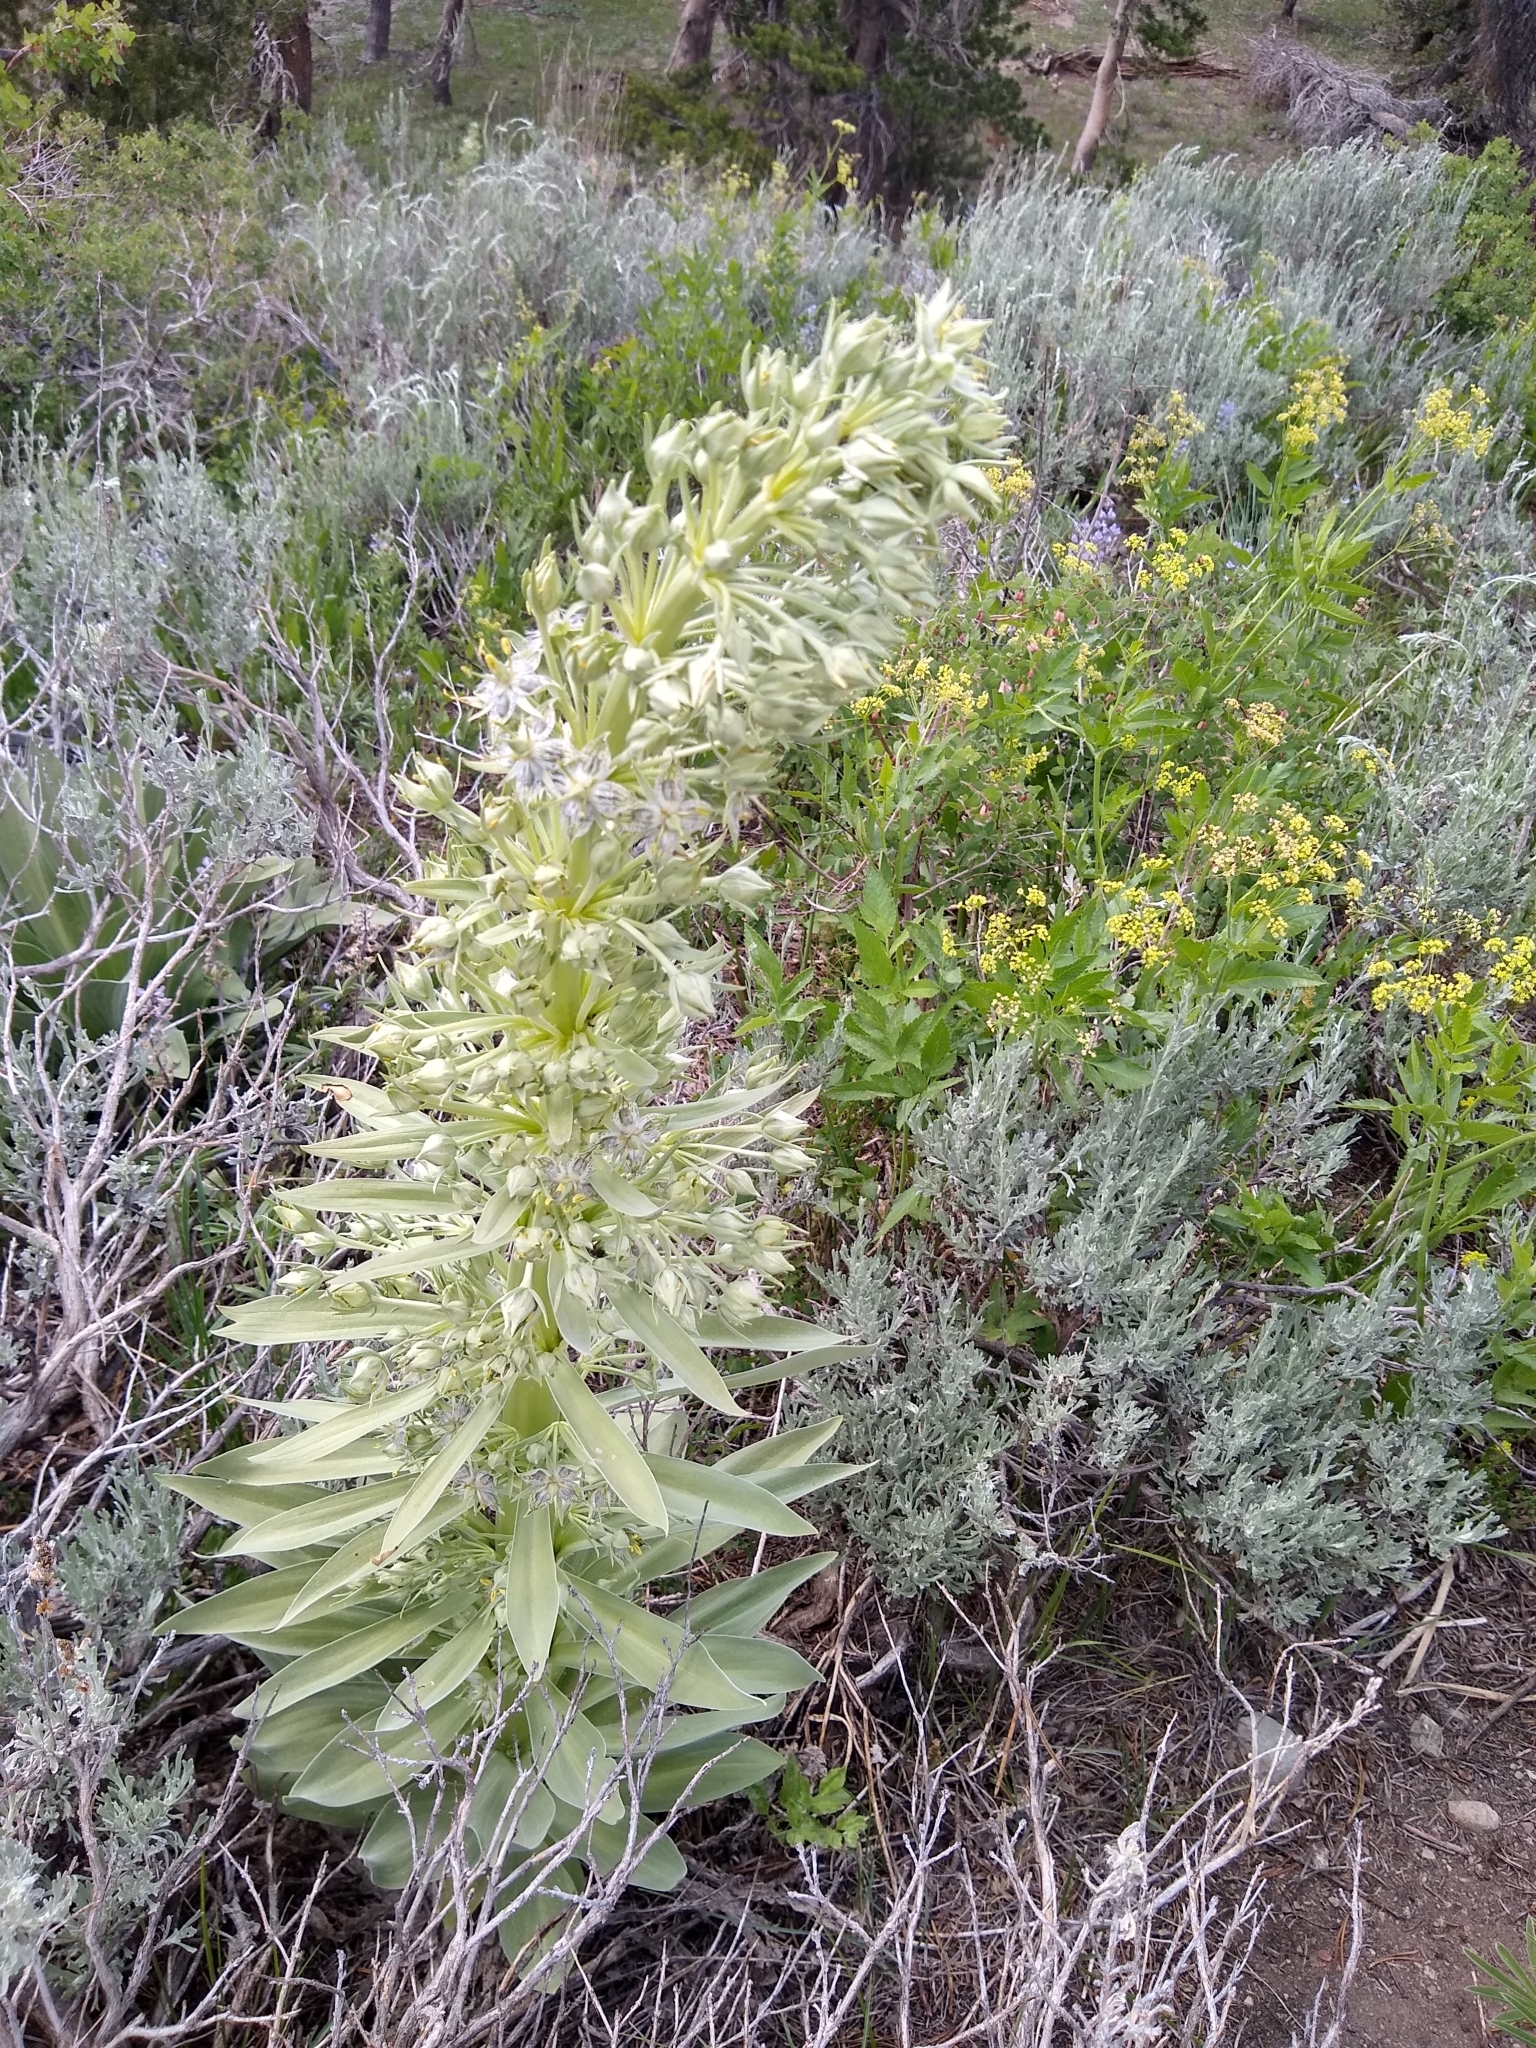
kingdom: Plantae
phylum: Tracheophyta
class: Magnoliopsida
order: Gentianales
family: Gentianaceae
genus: Frasera
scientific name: Frasera speciosa
